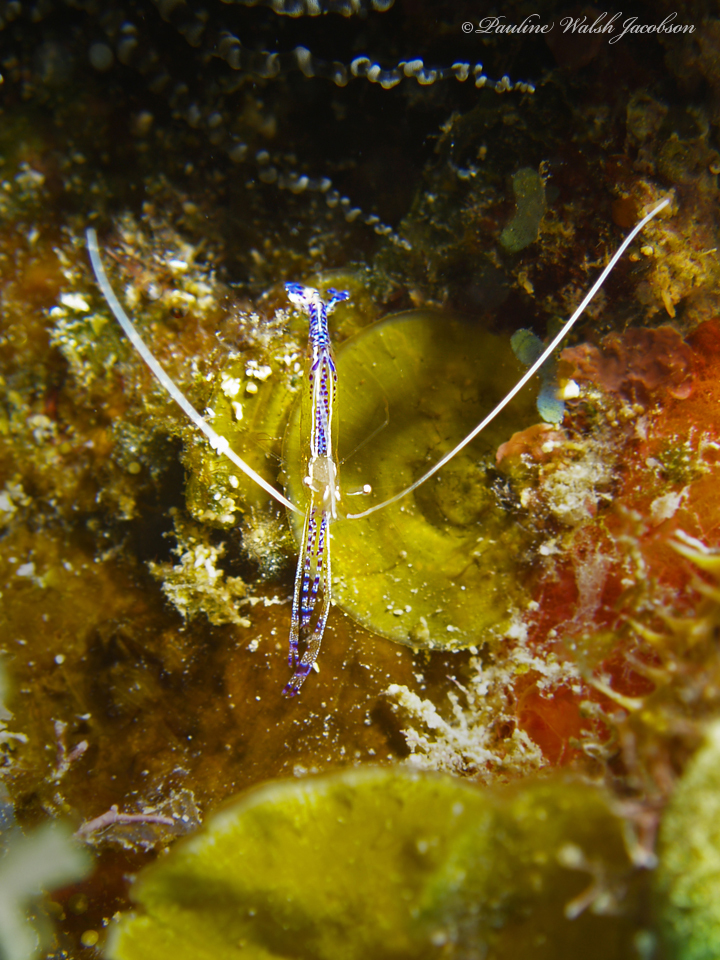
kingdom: Animalia
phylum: Arthropoda
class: Malacostraca
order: Decapoda
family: Palaemonidae
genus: Ancylomenes
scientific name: Ancylomenes pedersoni
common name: Pederson's cleaning shrimp
